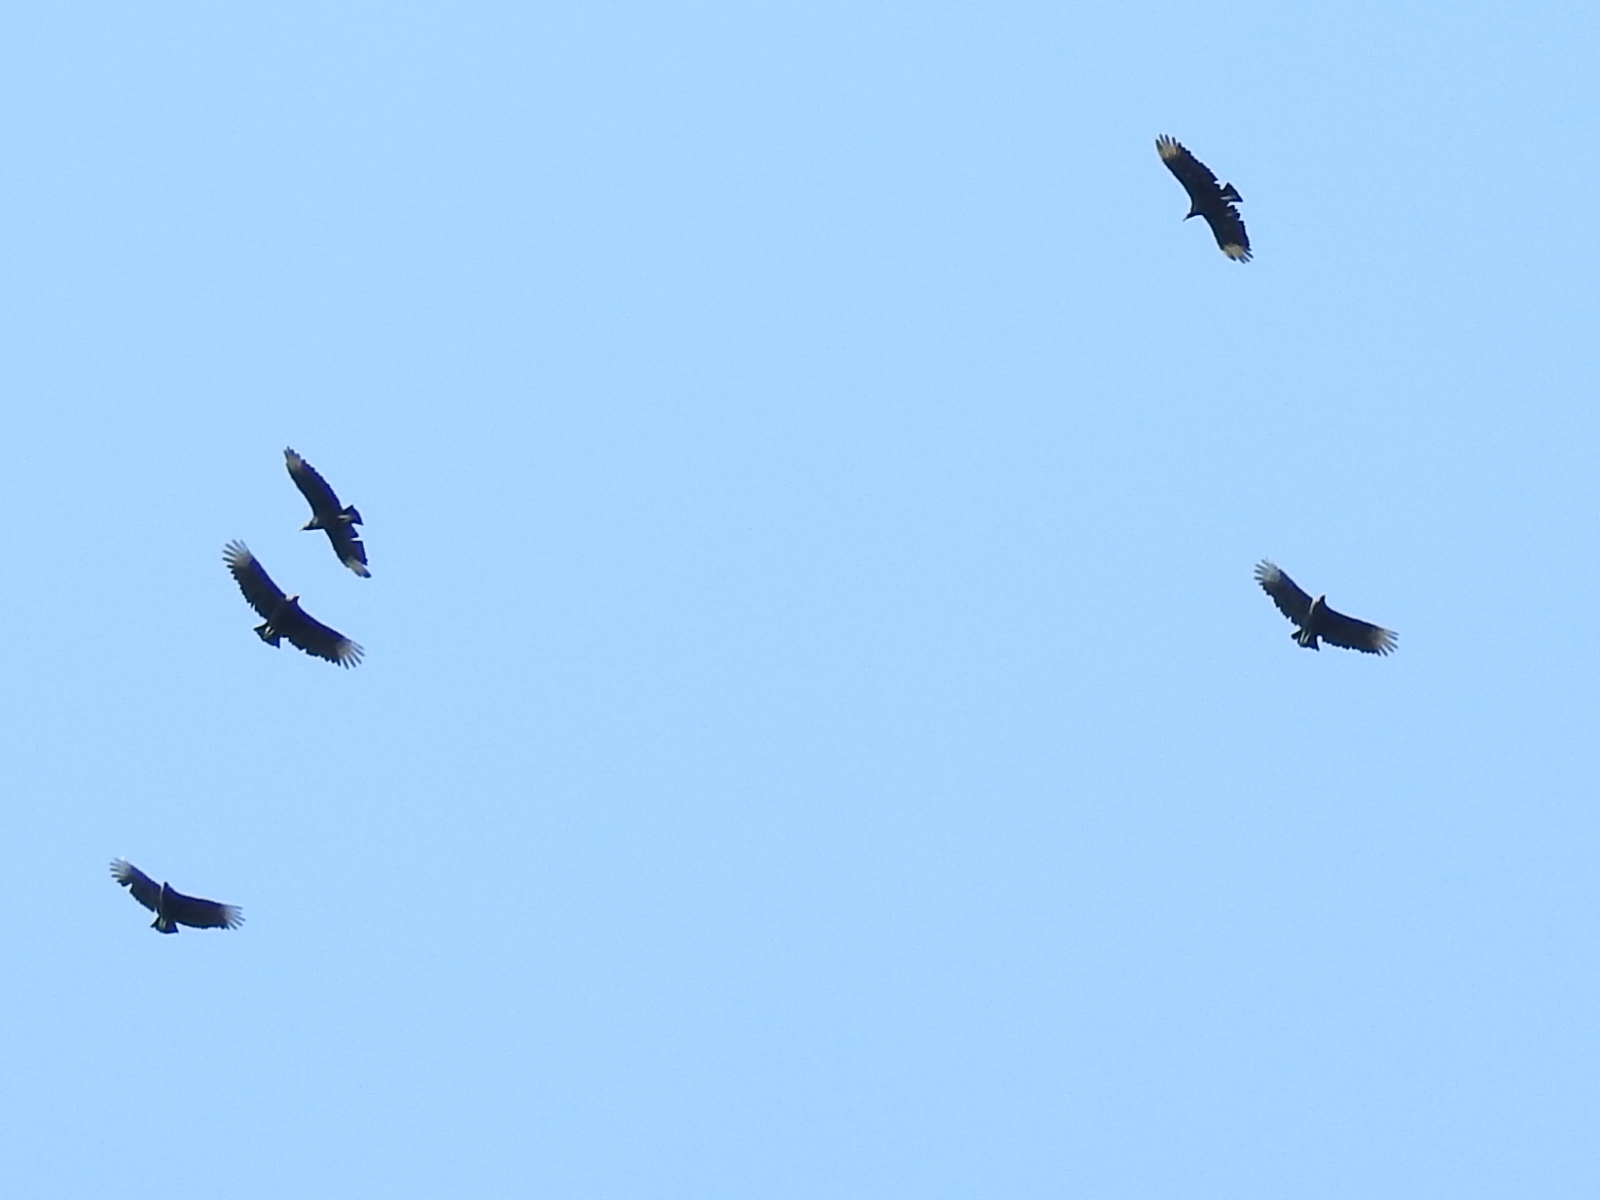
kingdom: Animalia
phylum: Chordata
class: Aves
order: Accipitriformes
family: Cathartidae
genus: Coragyps
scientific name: Coragyps atratus
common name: Black vulture
